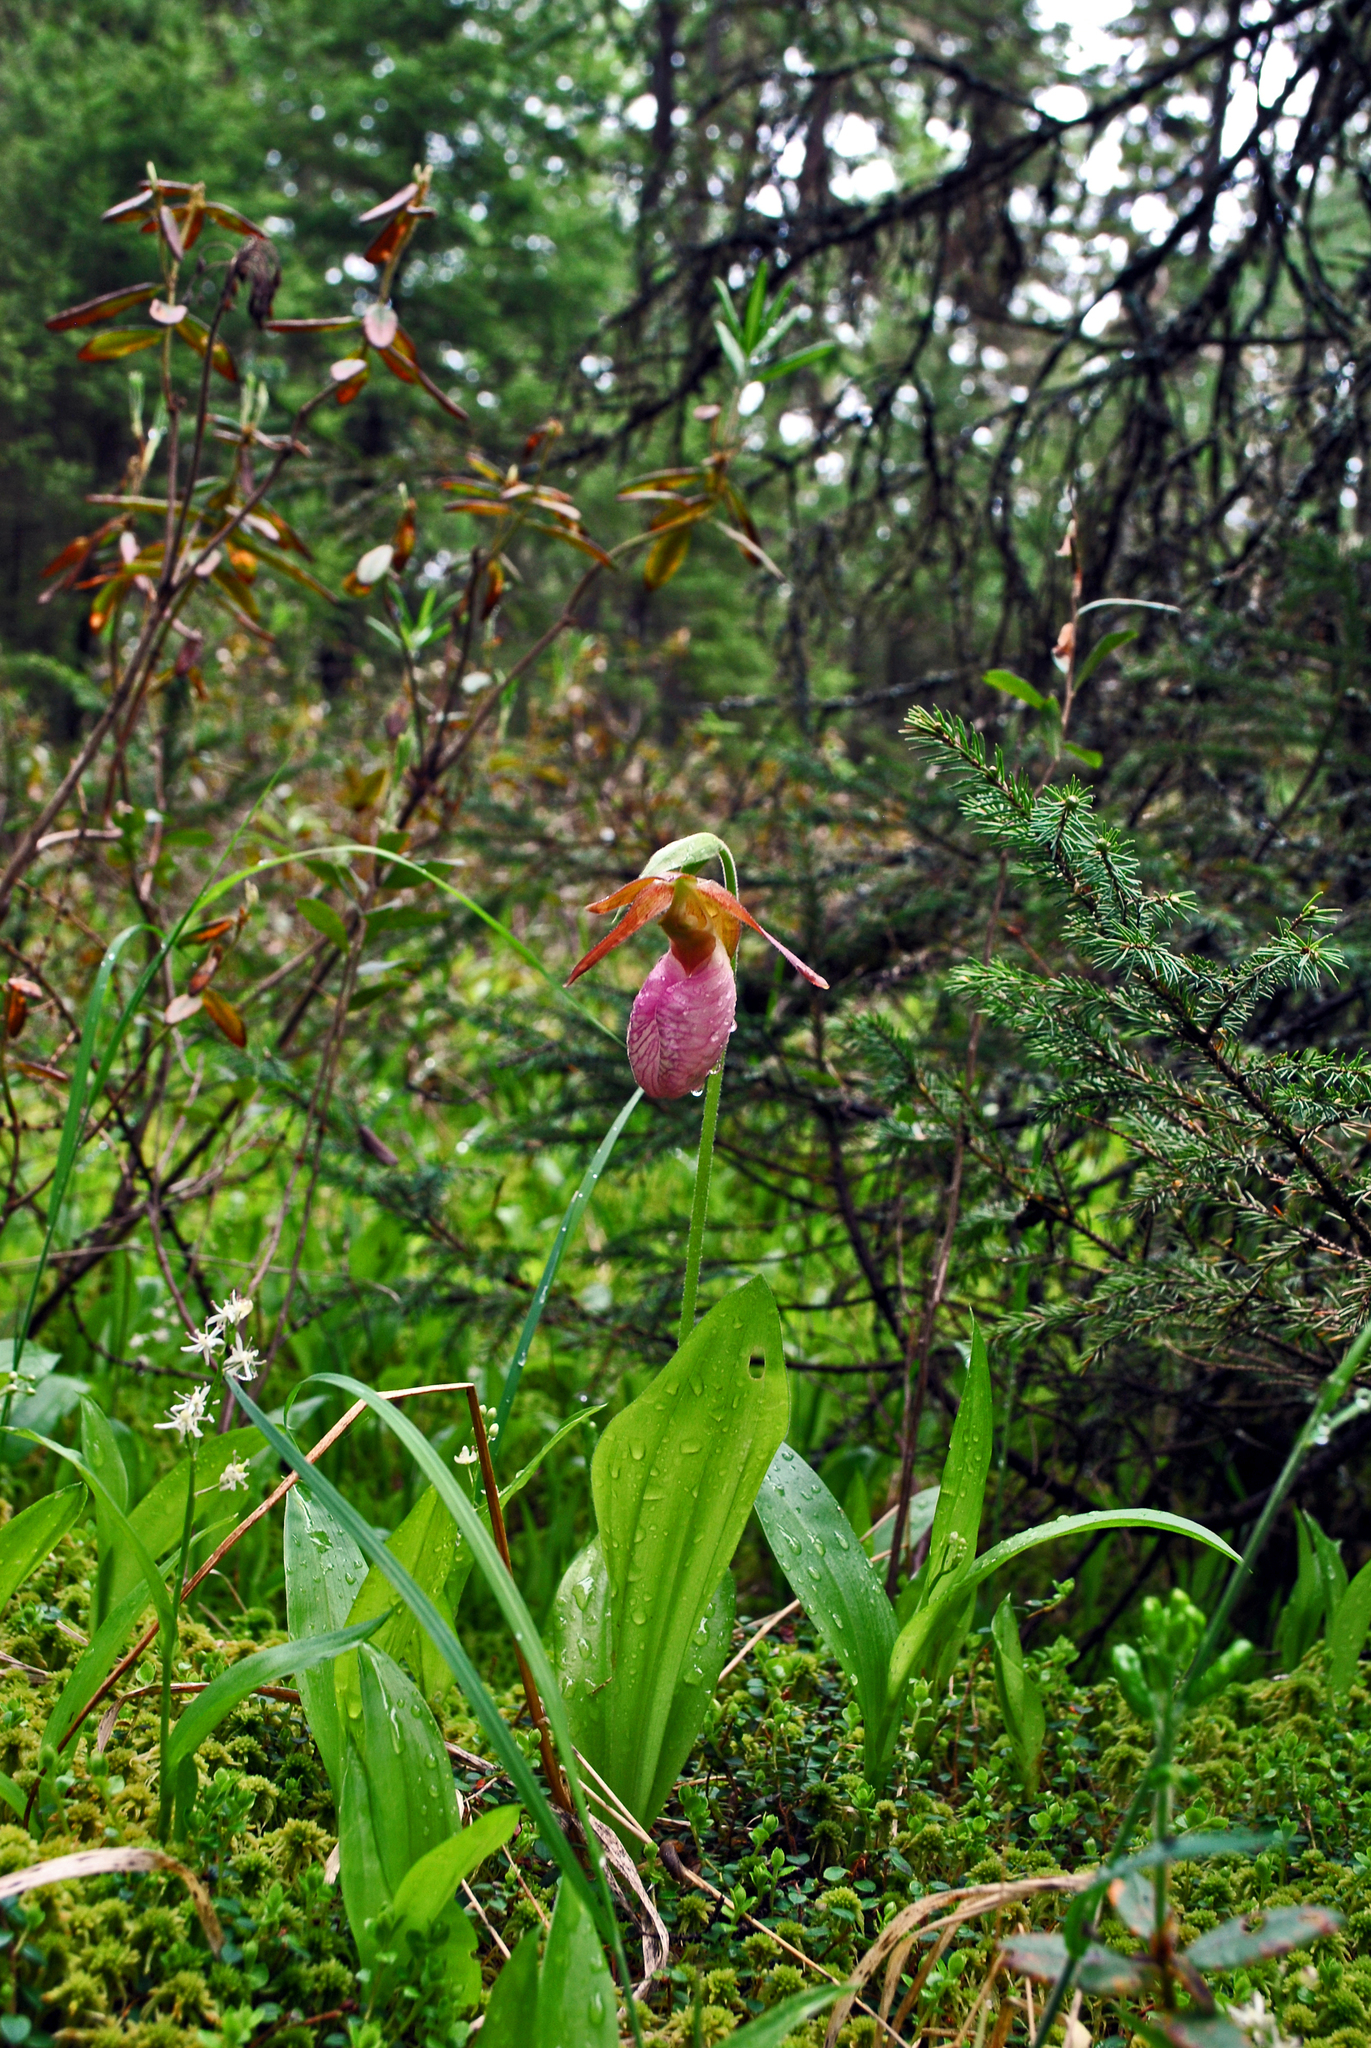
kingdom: Plantae
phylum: Tracheophyta
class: Liliopsida
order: Asparagales
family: Orchidaceae
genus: Cypripedium
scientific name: Cypripedium acaule
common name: Pink lady's-slipper
